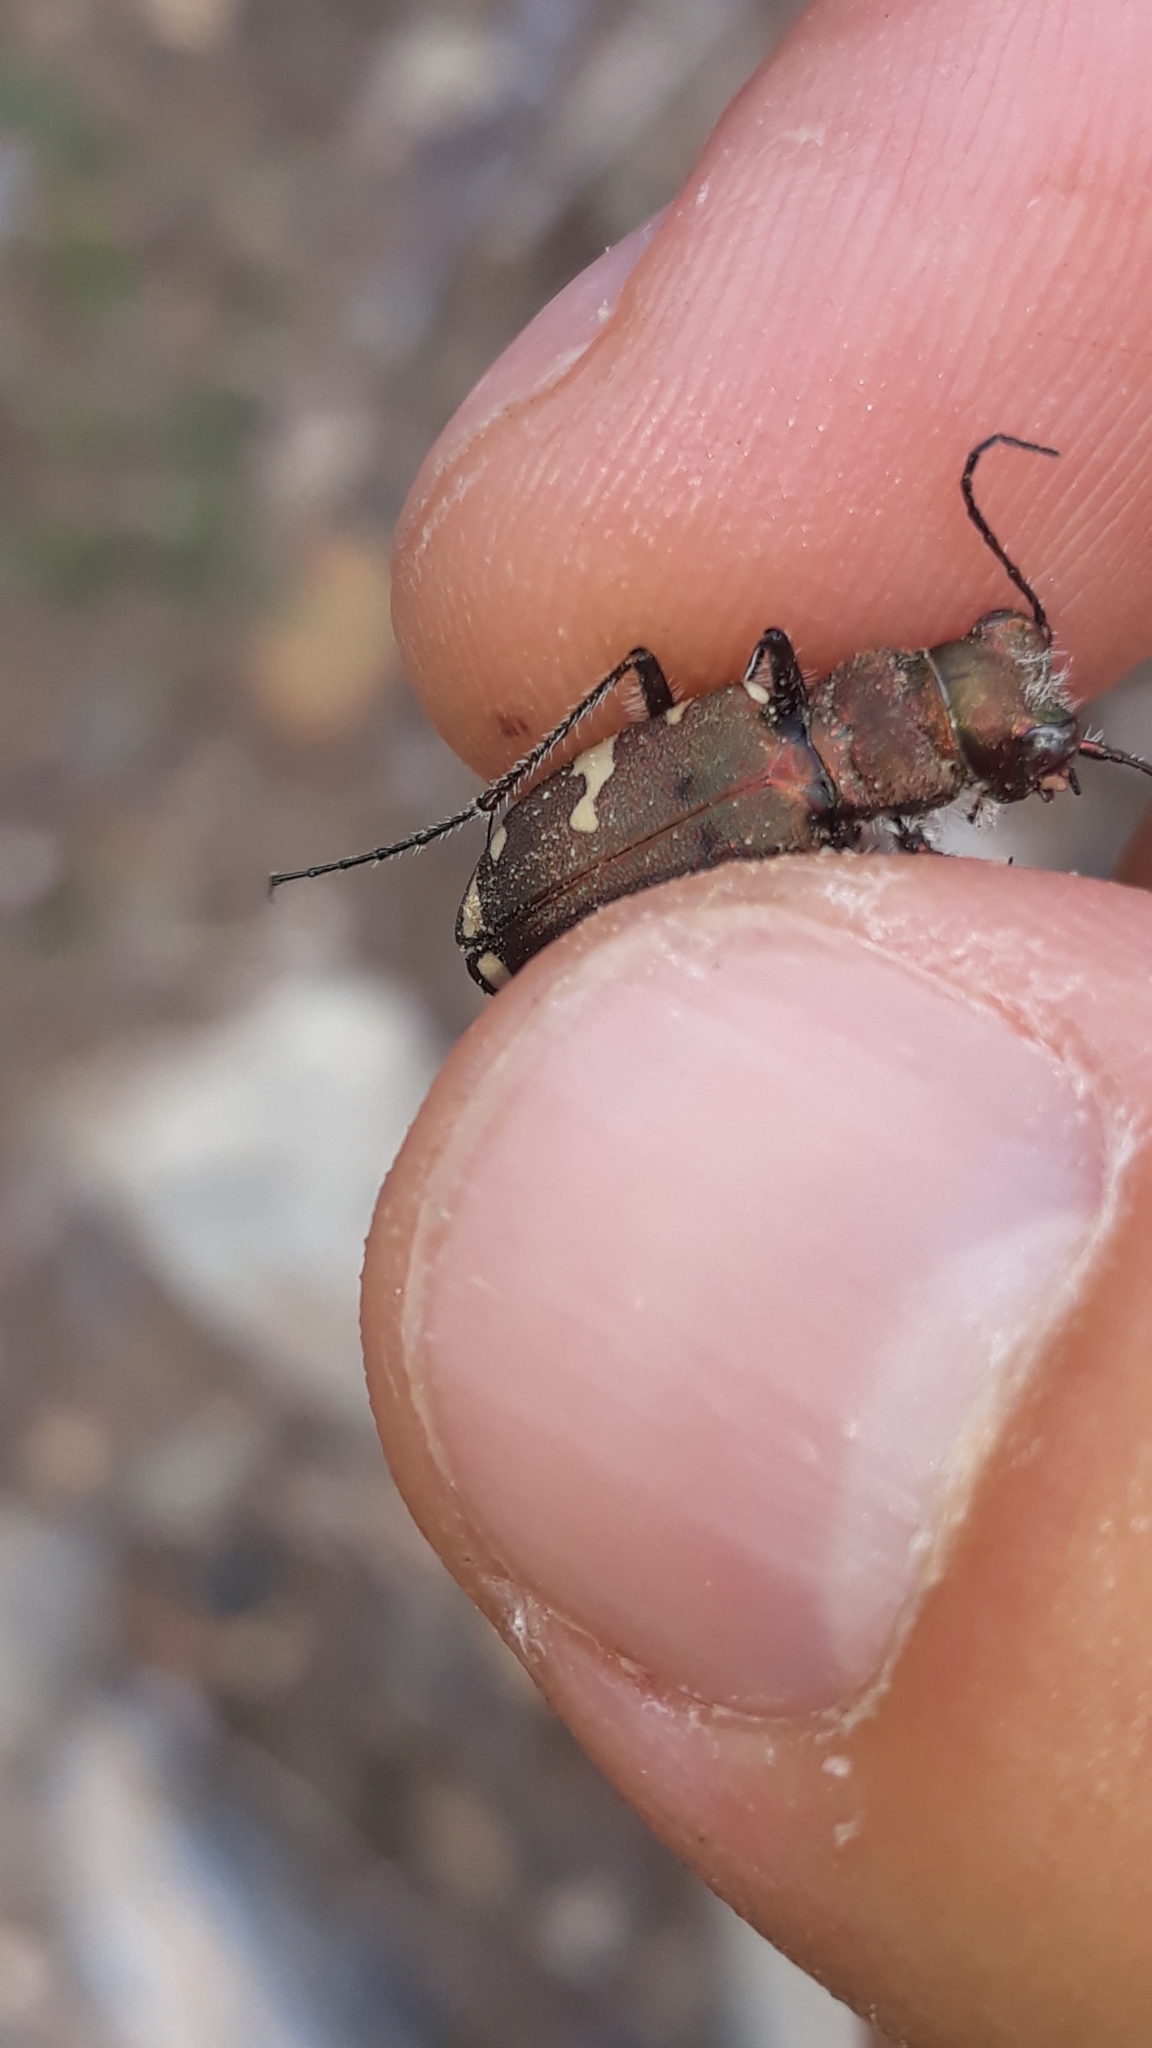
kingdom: Animalia
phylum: Arthropoda
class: Insecta
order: Coleoptera
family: Carabidae
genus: Cicindela
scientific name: Cicindela sylvicola
